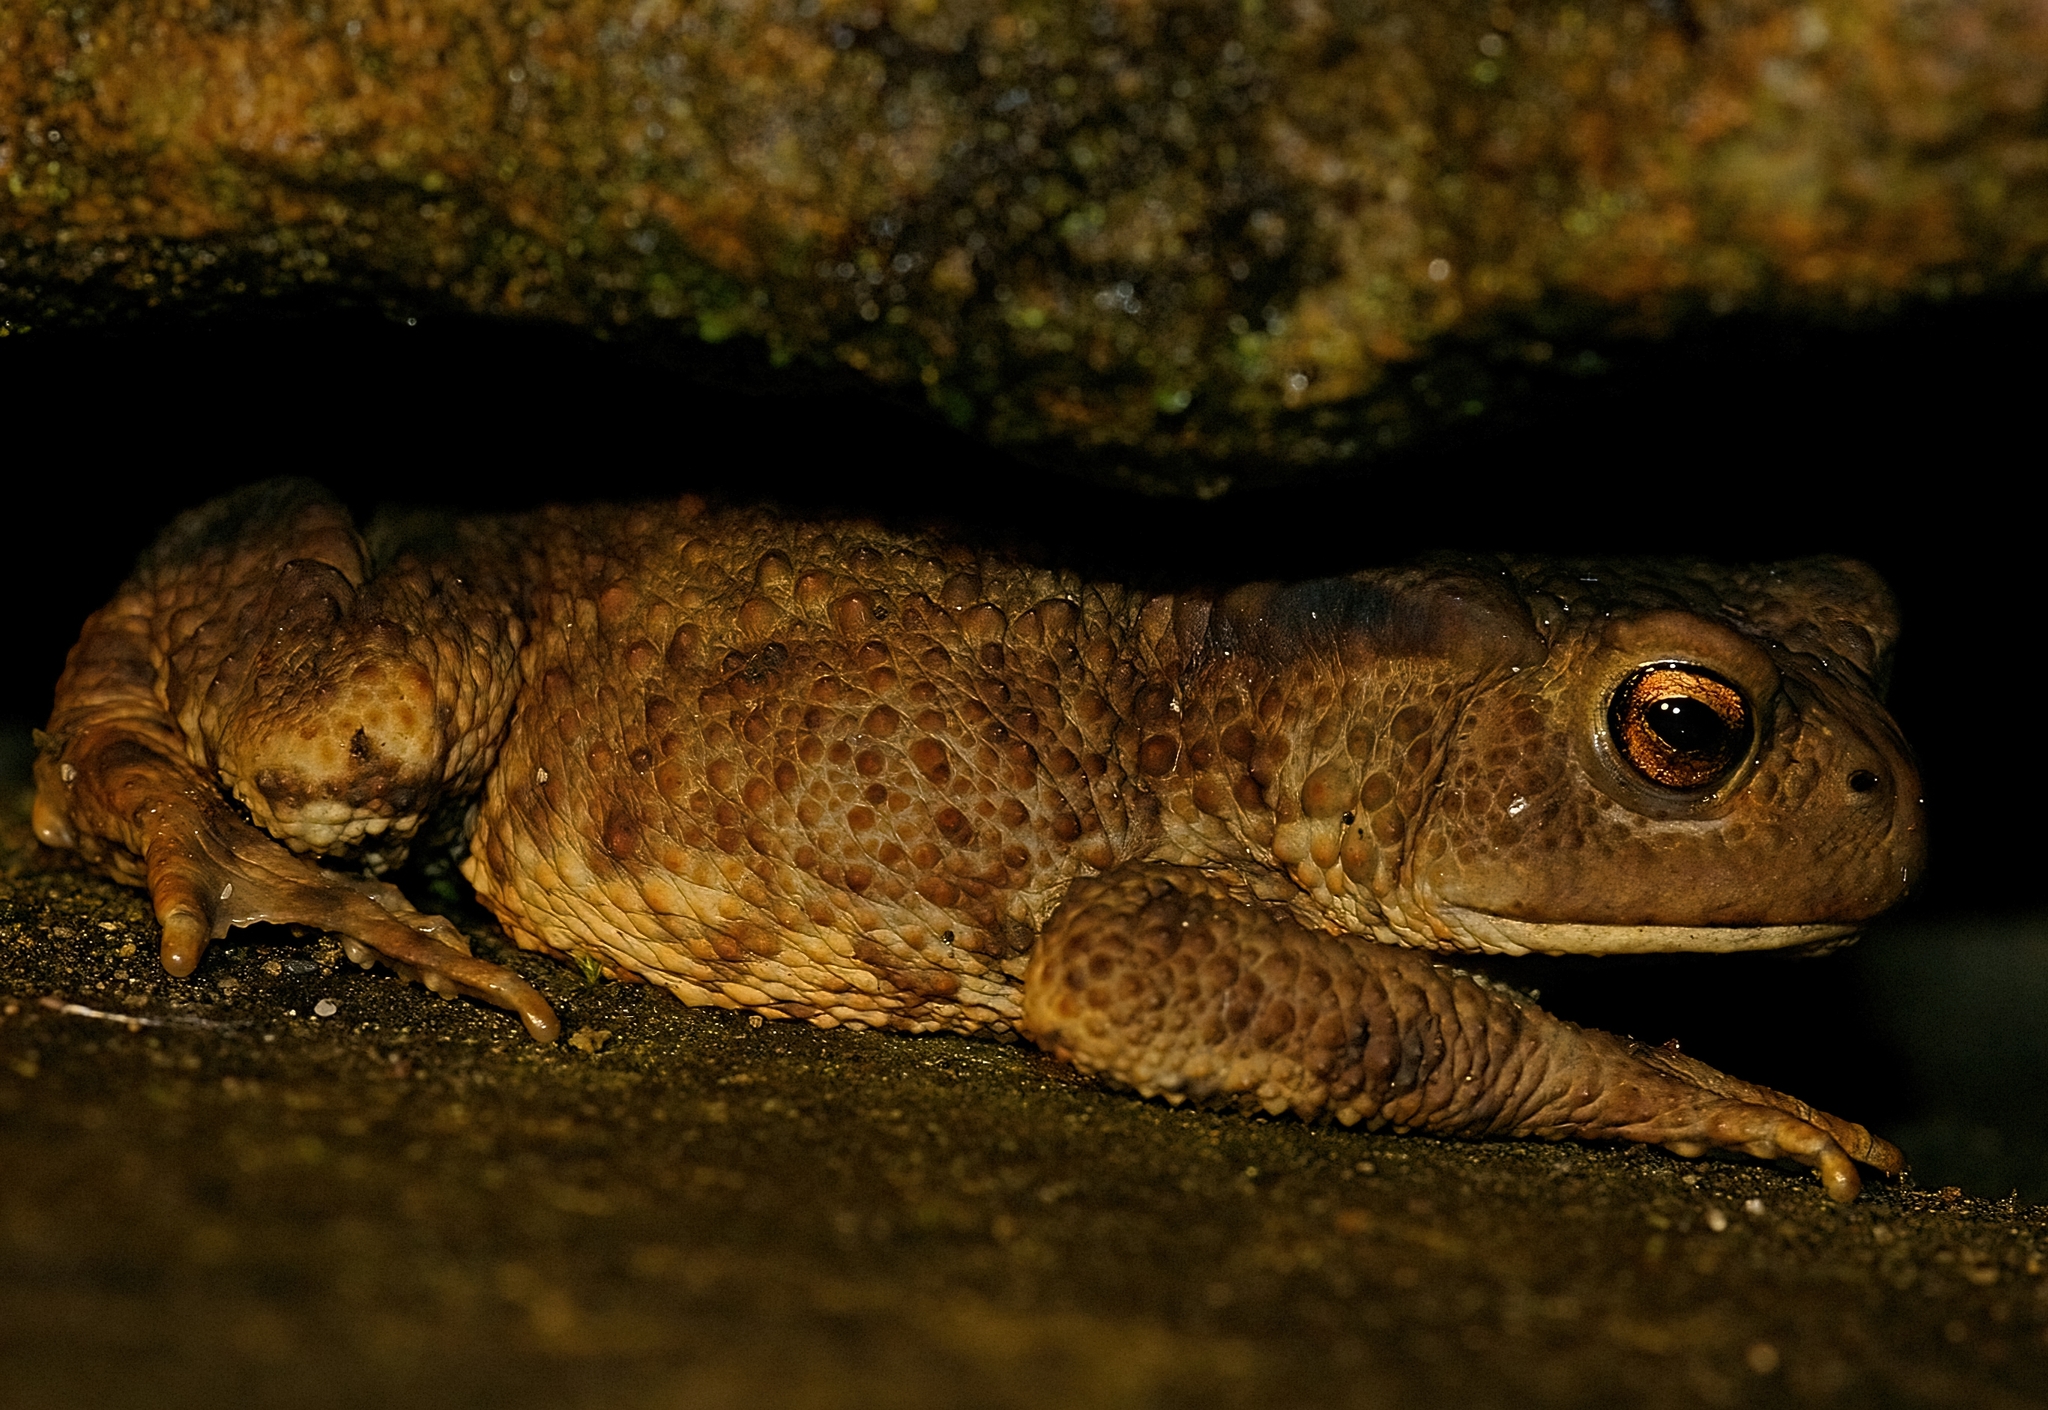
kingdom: Animalia
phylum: Chordata
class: Amphibia
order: Anura
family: Bufonidae
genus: Bufo
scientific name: Bufo bufo
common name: Common toad
